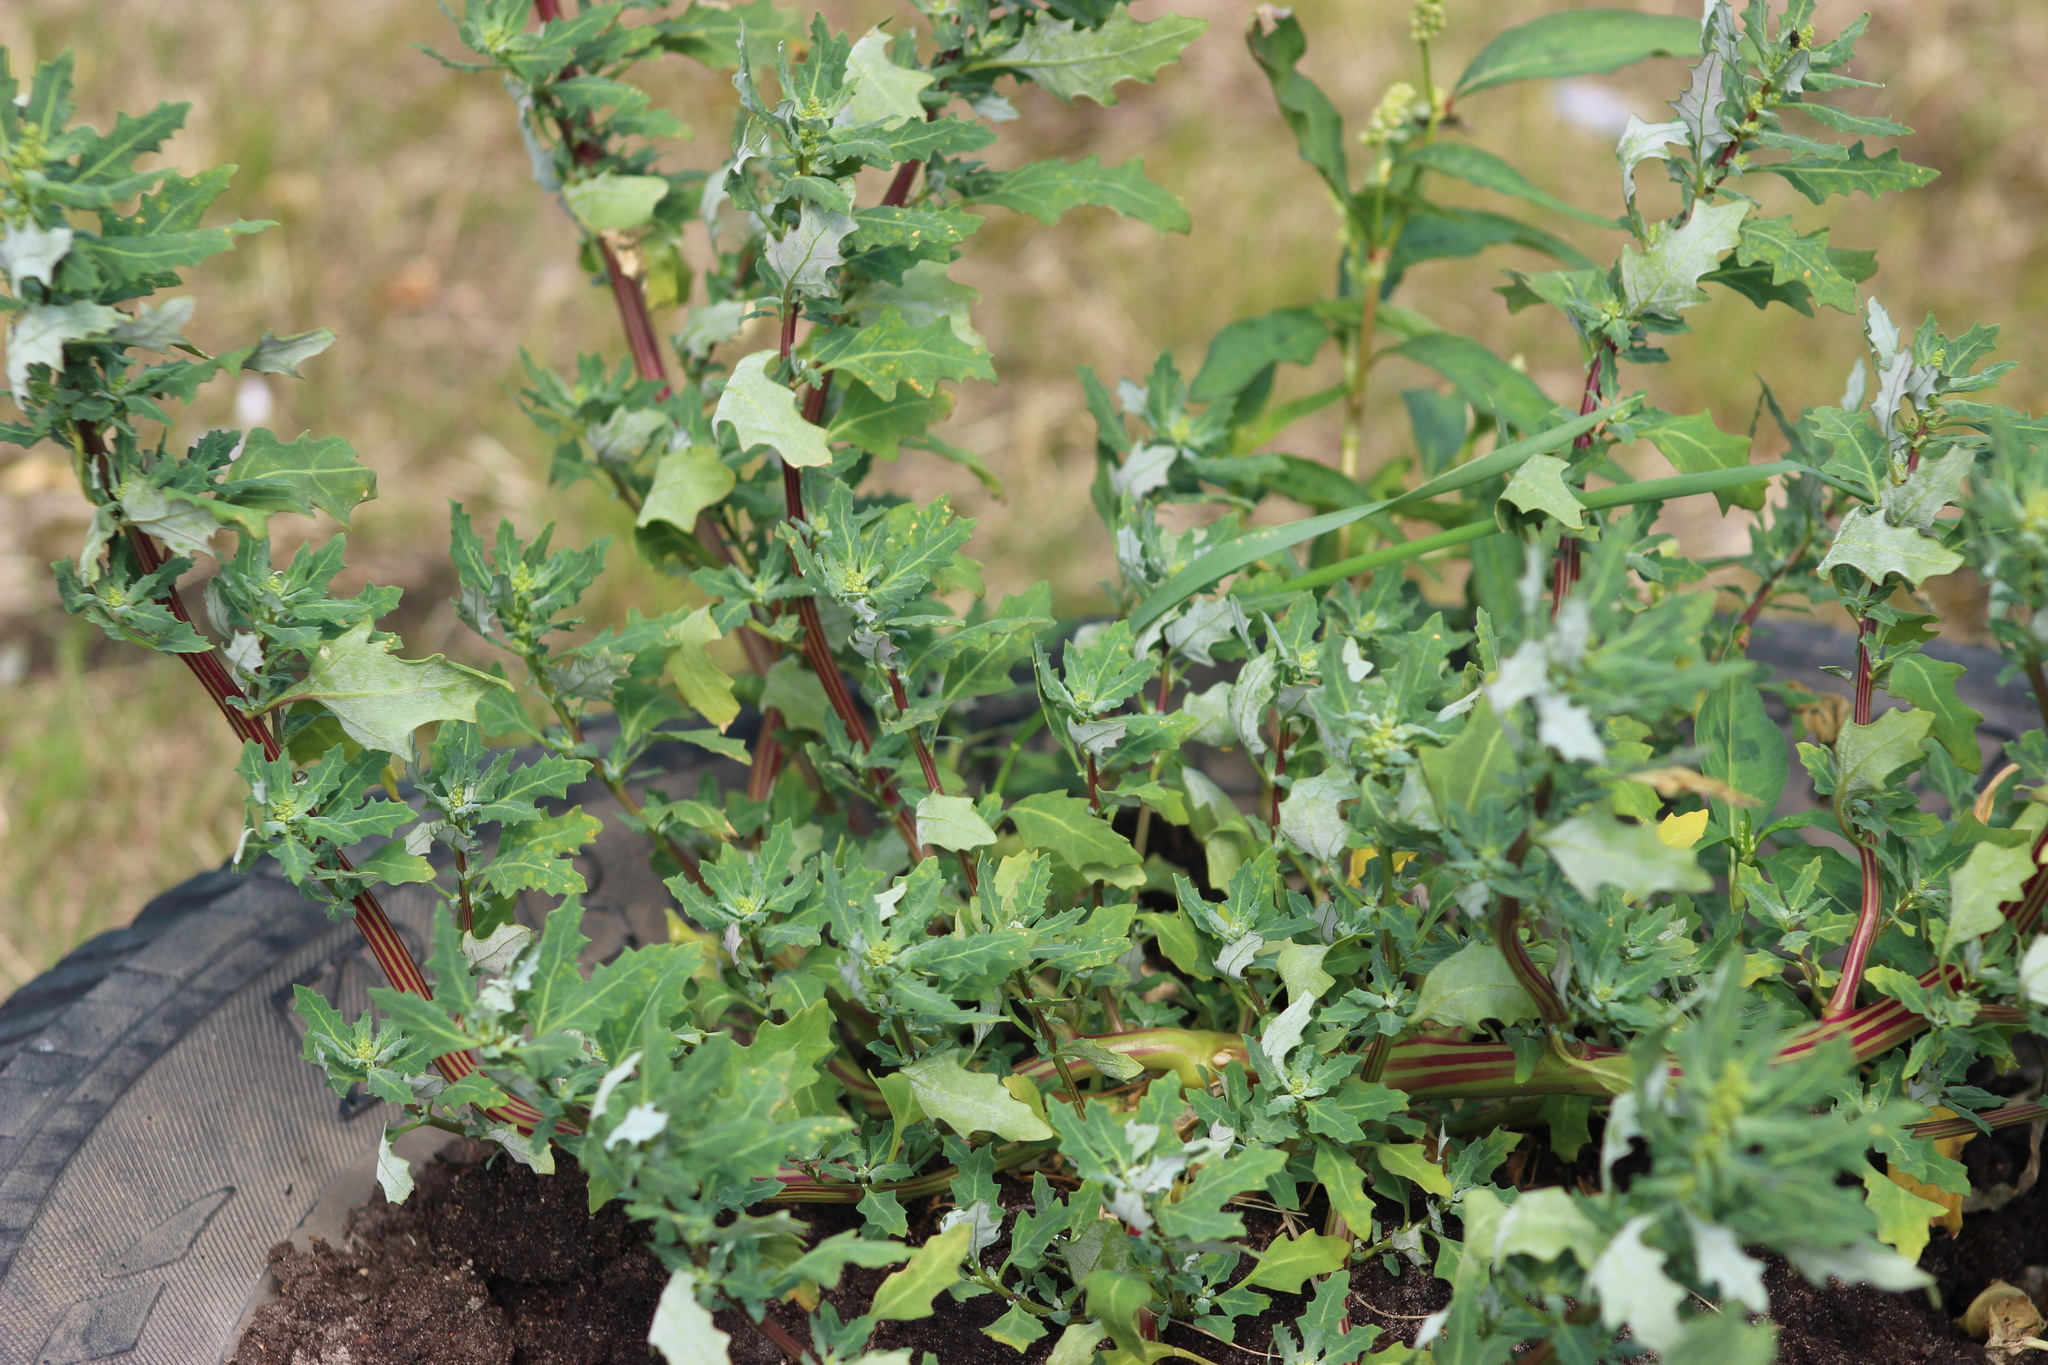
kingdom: Plantae
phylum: Tracheophyta
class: Magnoliopsida
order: Caryophyllales
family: Amaranthaceae
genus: Oxybasis
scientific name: Oxybasis glauca
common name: Glaucous goosefoot
